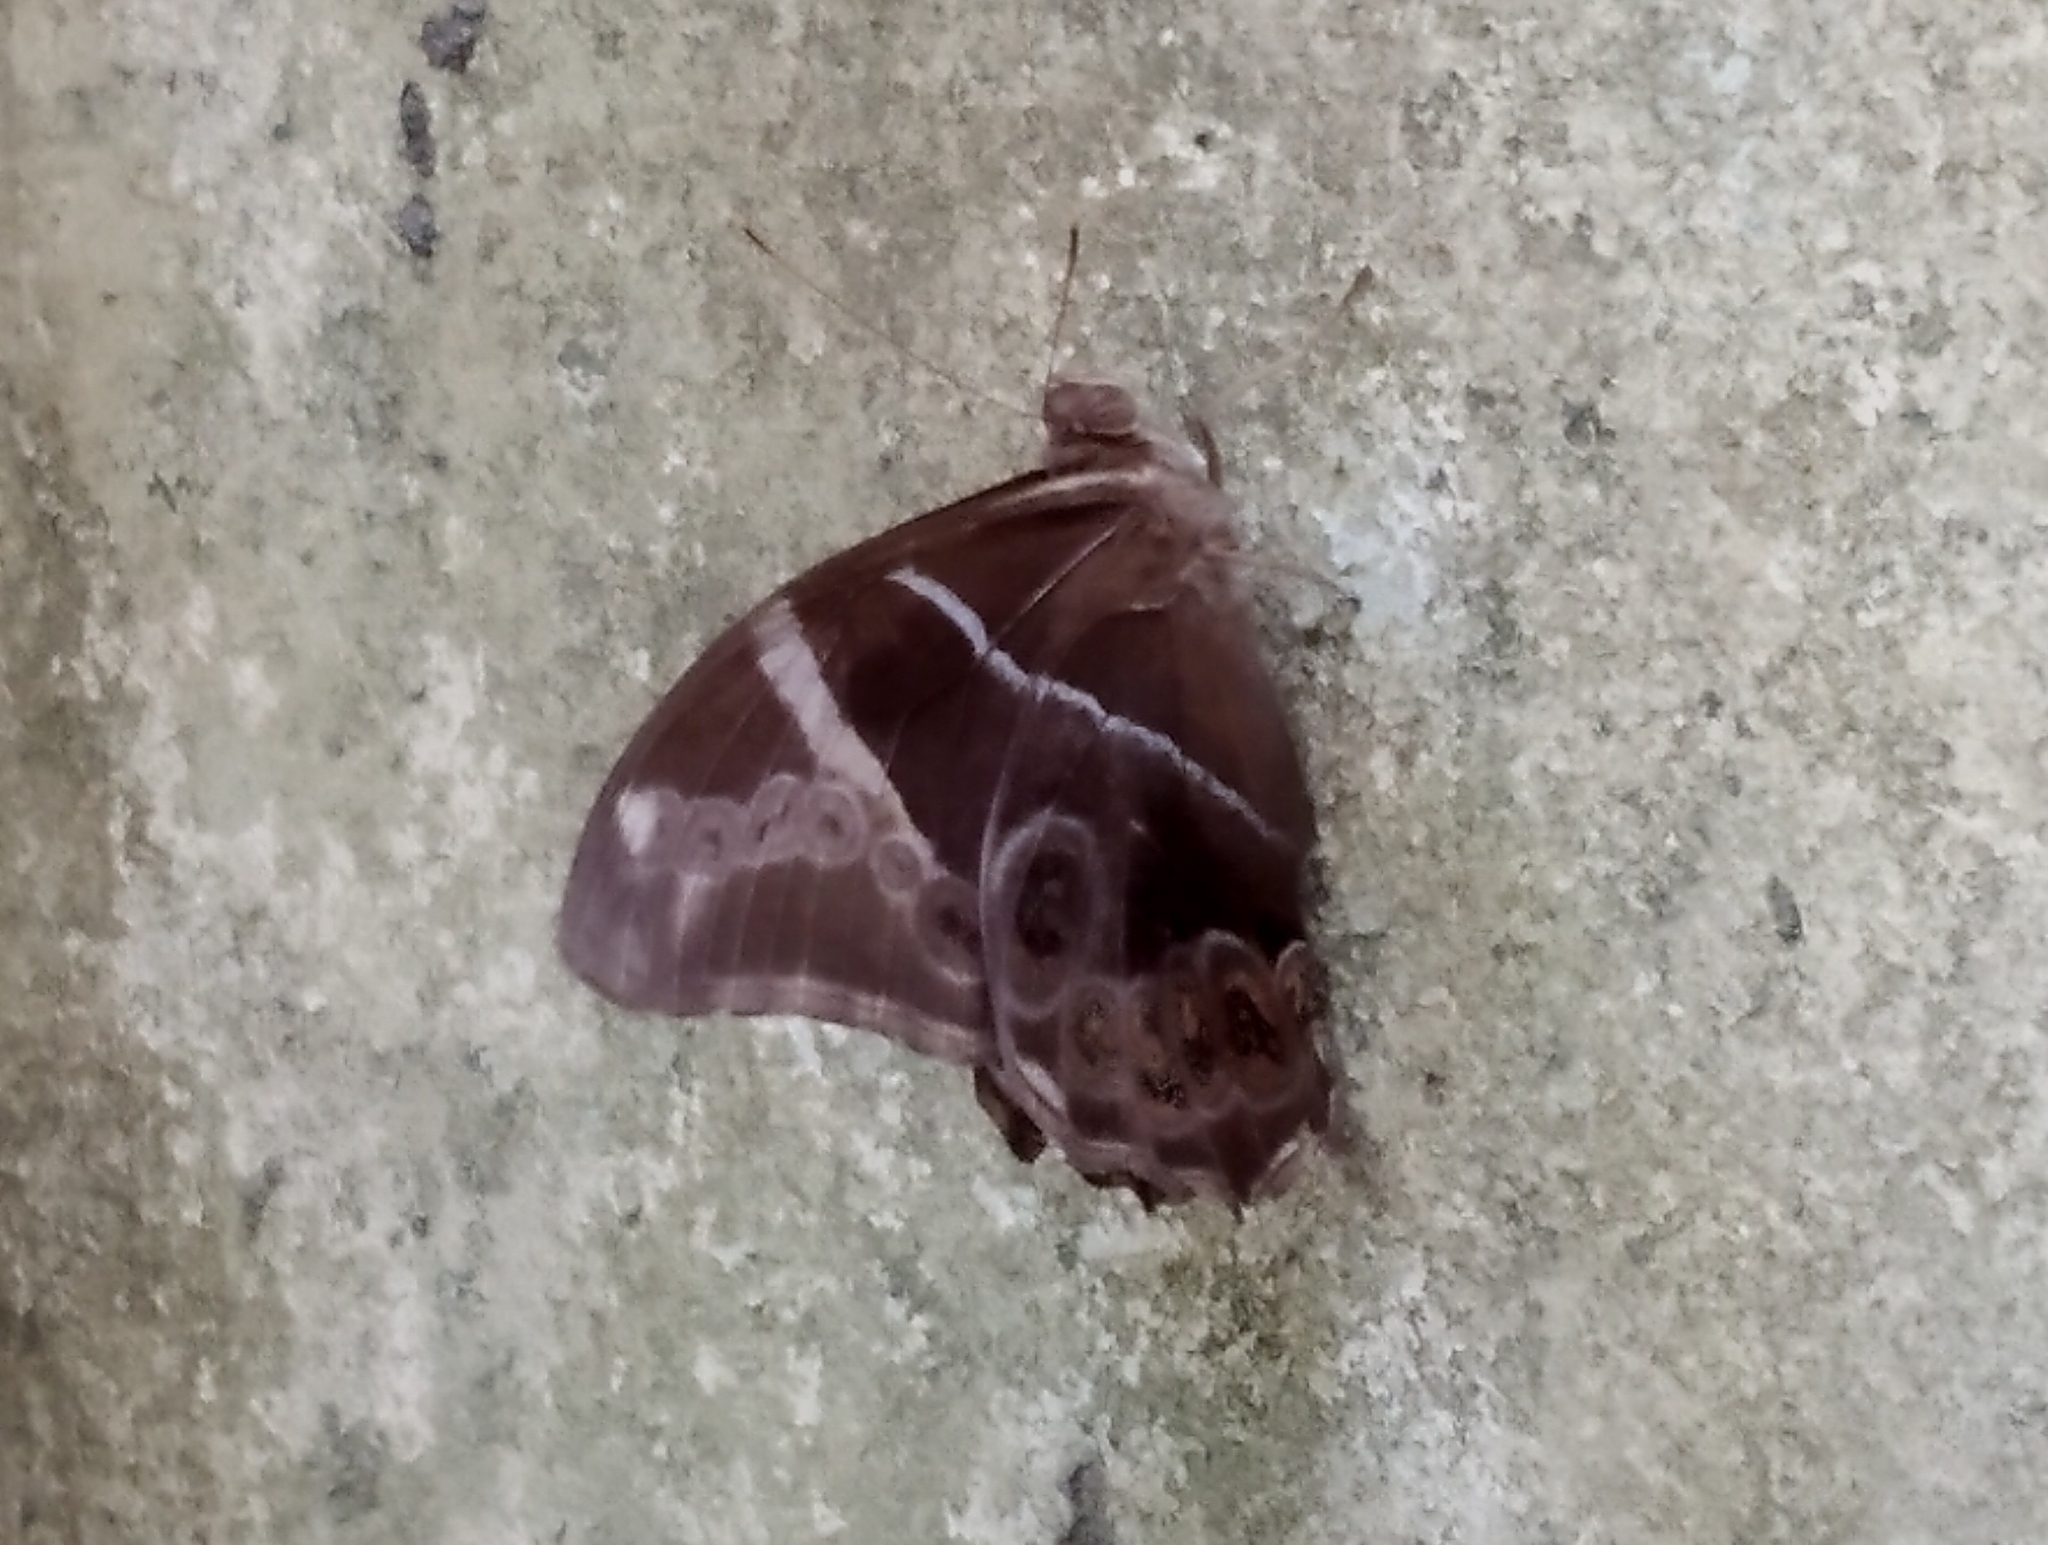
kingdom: Animalia
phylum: Arthropoda
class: Insecta
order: Lepidoptera
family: Nymphalidae
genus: Lethe
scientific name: Lethe europa
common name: Bamboo treebrown
